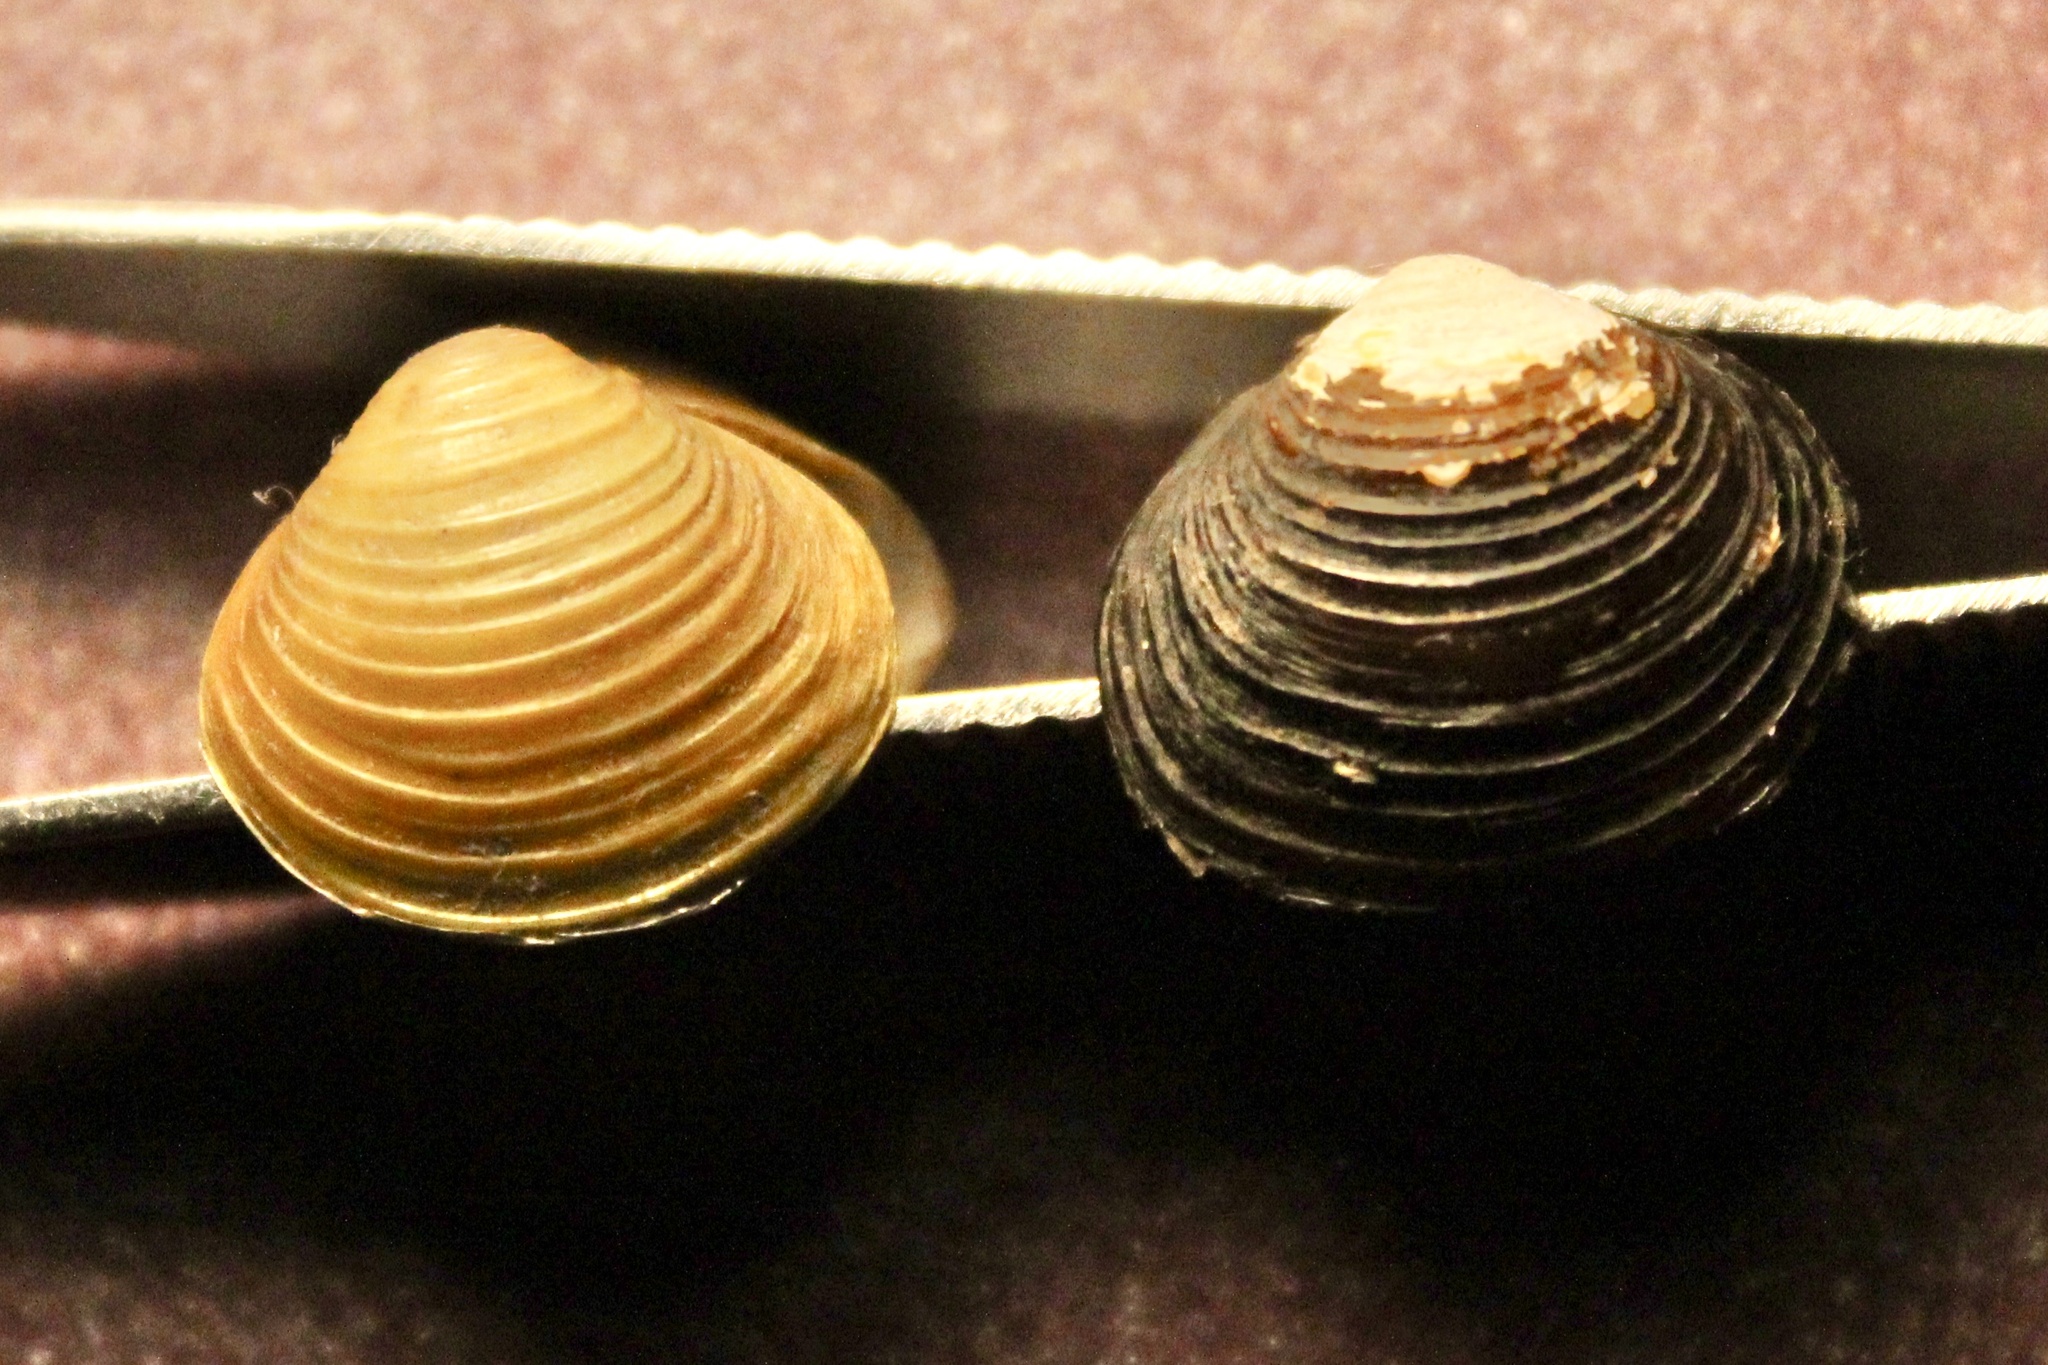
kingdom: Animalia
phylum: Mollusca
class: Bivalvia
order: Venerida
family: Cyrenidae
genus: Corbicula
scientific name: Corbicula fluminea
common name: Asian clam
